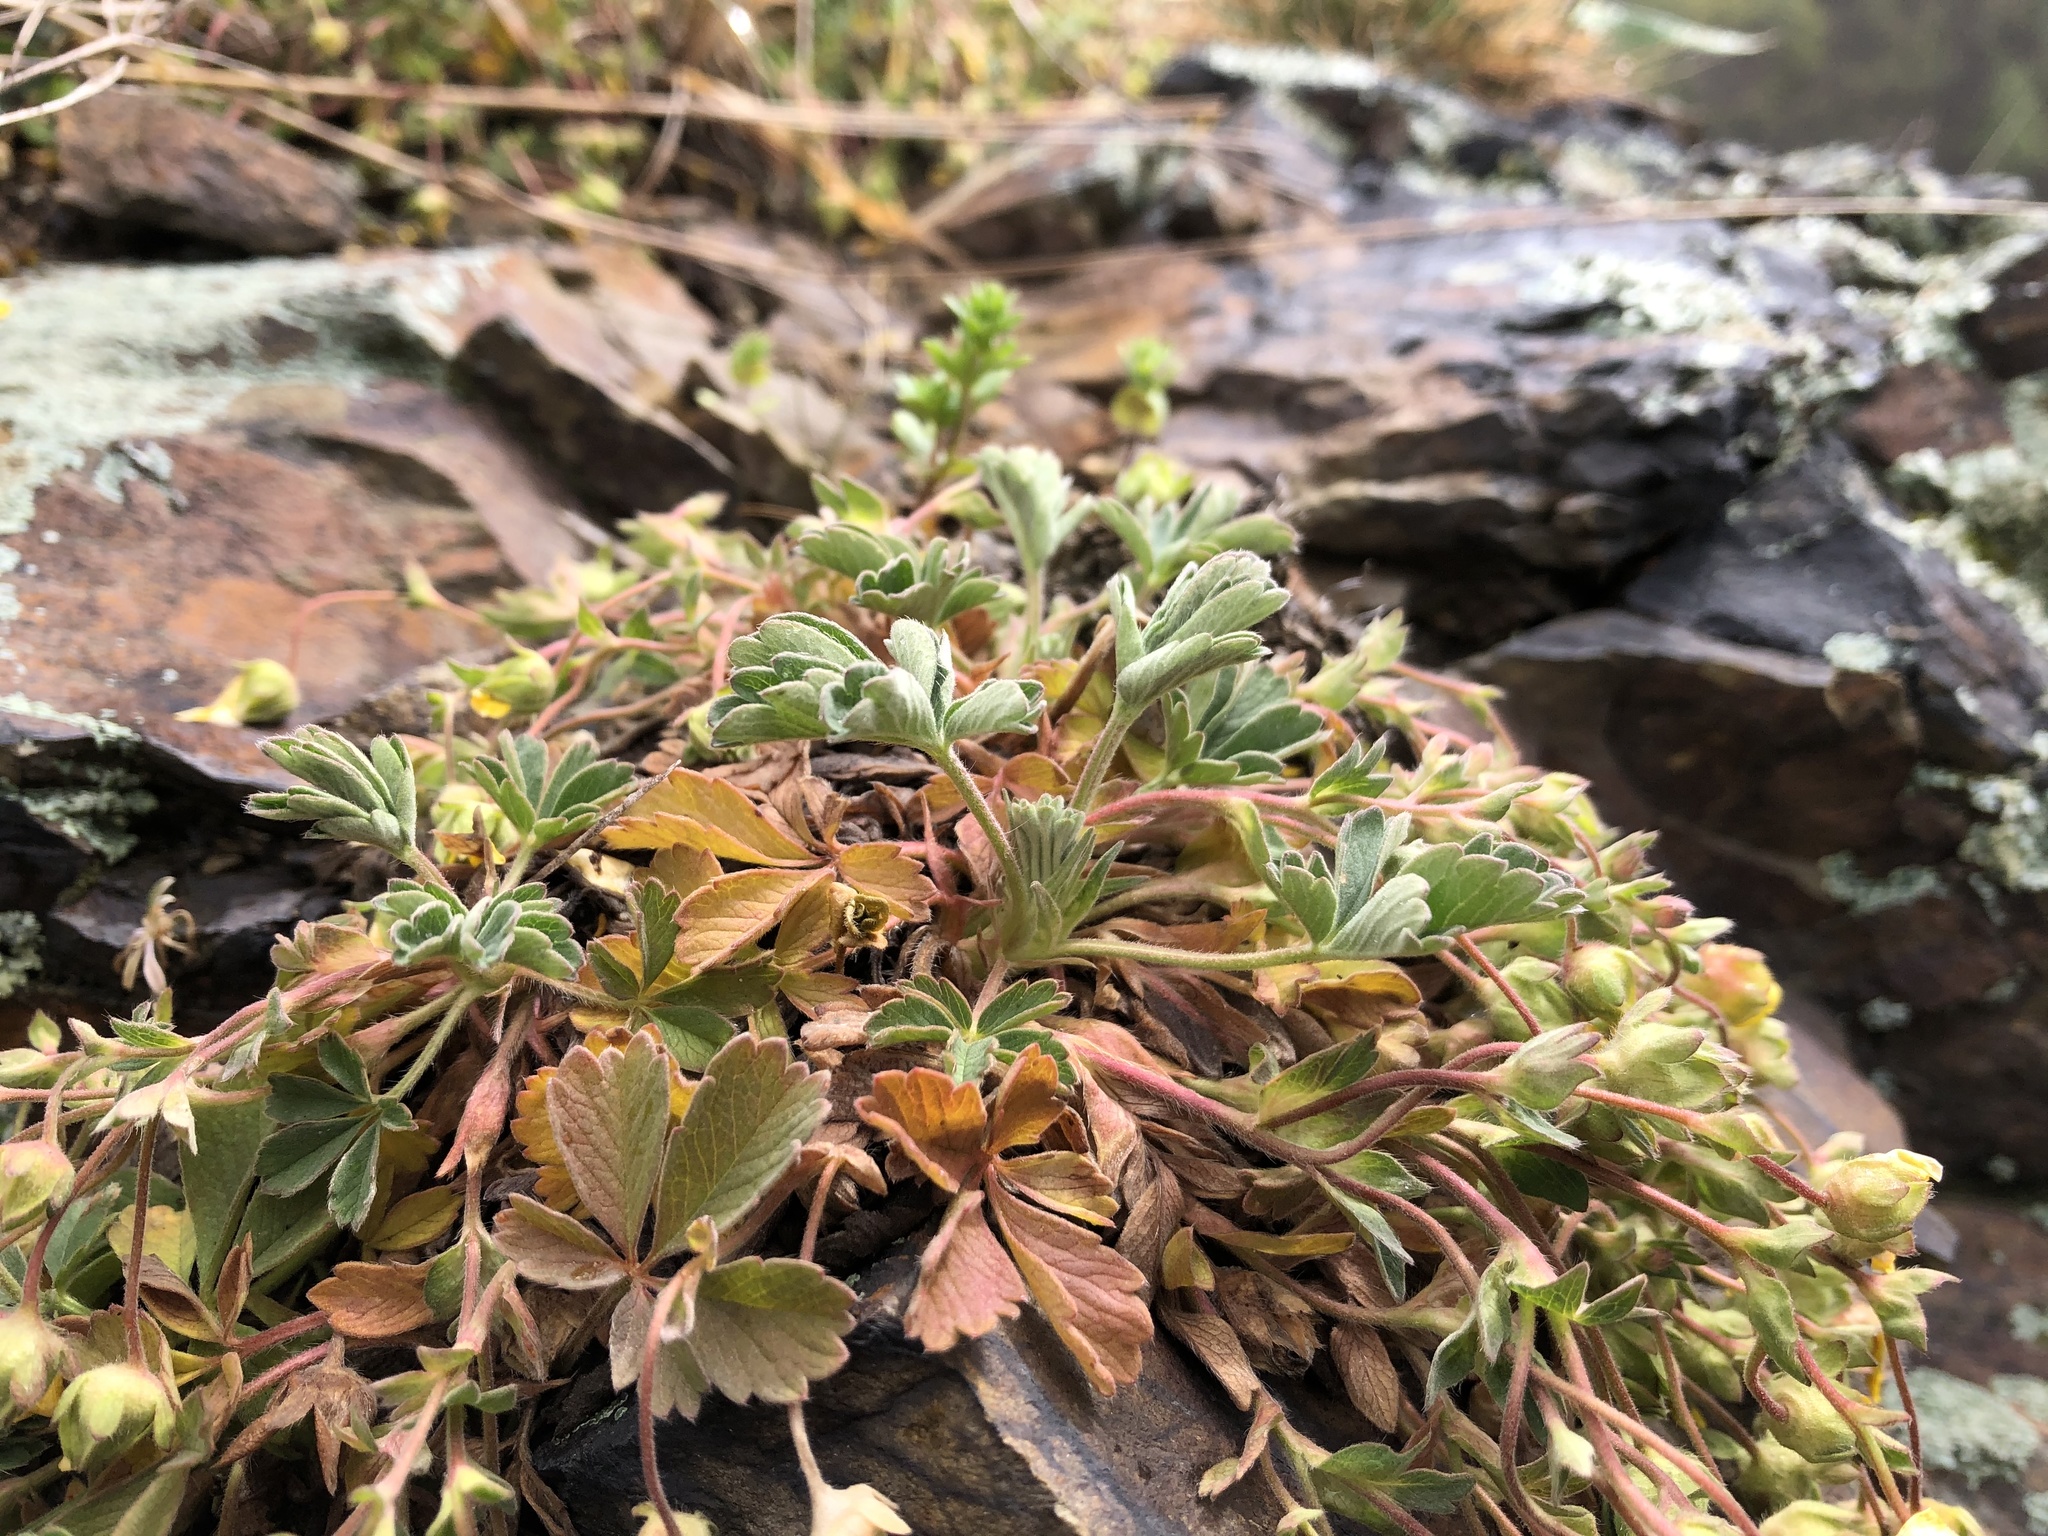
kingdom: Plantae
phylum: Tracheophyta
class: Magnoliopsida
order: Rosales
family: Rosaceae
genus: Potentilla
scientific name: Potentilla incana
